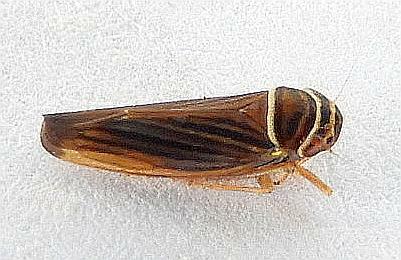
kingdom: Animalia
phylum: Arthropoda
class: Insecta
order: Hemiptera
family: Cicadellidae
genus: Tylozygus
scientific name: Tylozygus bifidus
